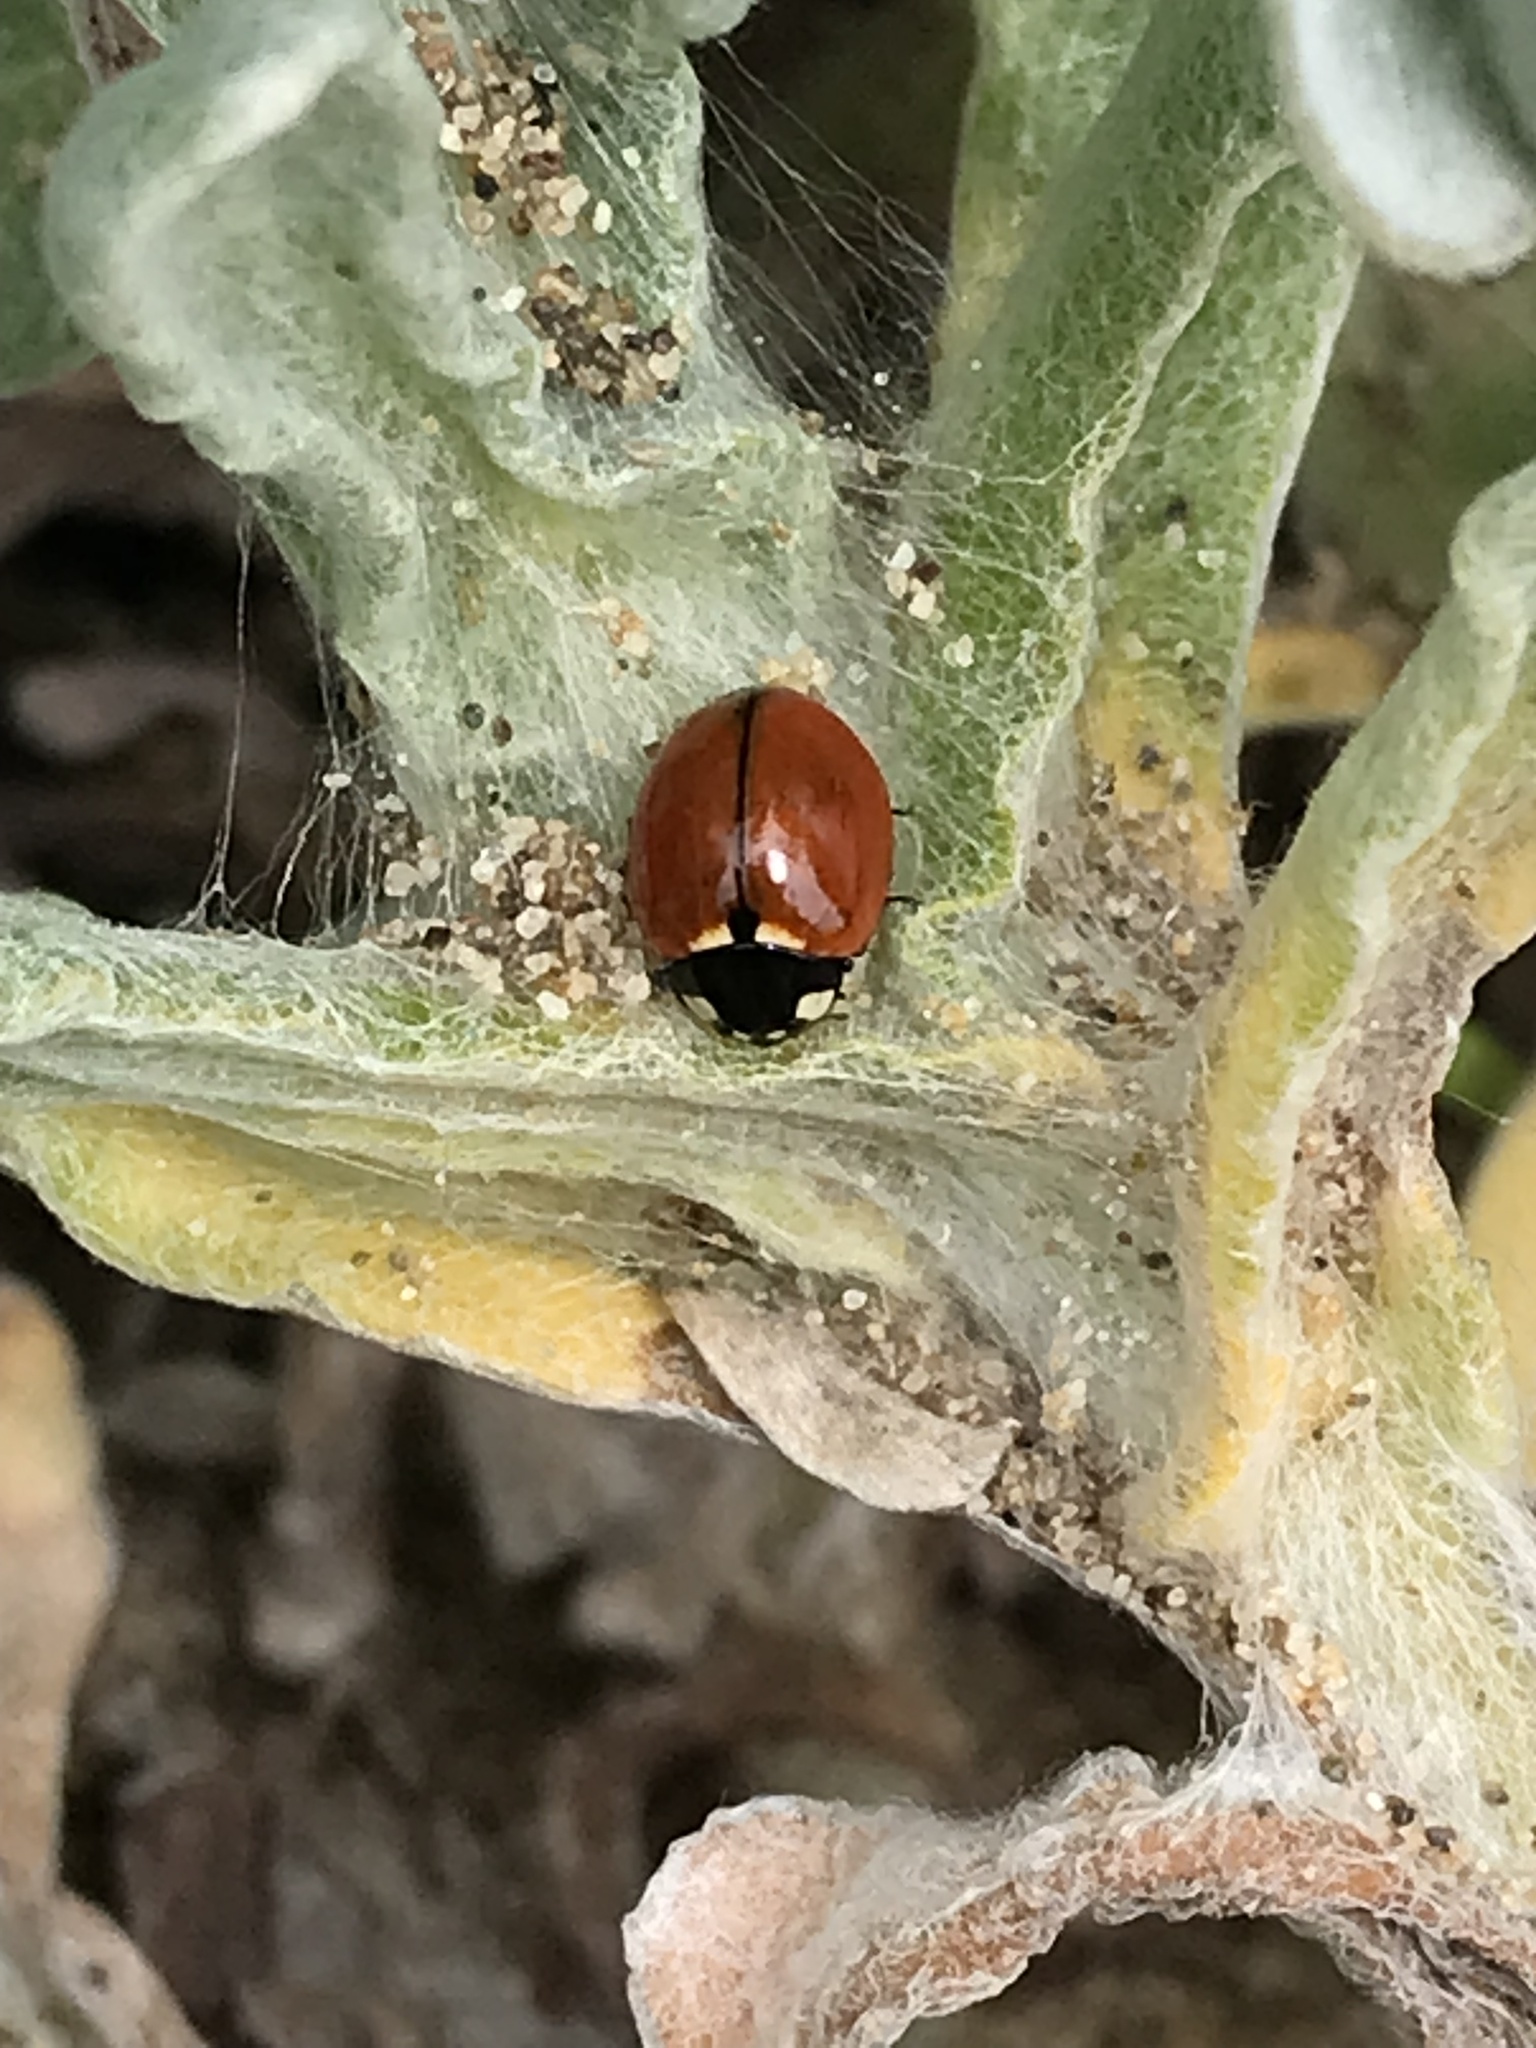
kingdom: Animalia
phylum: Arthropoda
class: Insecta
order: Coleoptera
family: Coccinellidae
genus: Coccinella
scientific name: Coccinella californica
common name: Lady beetle
